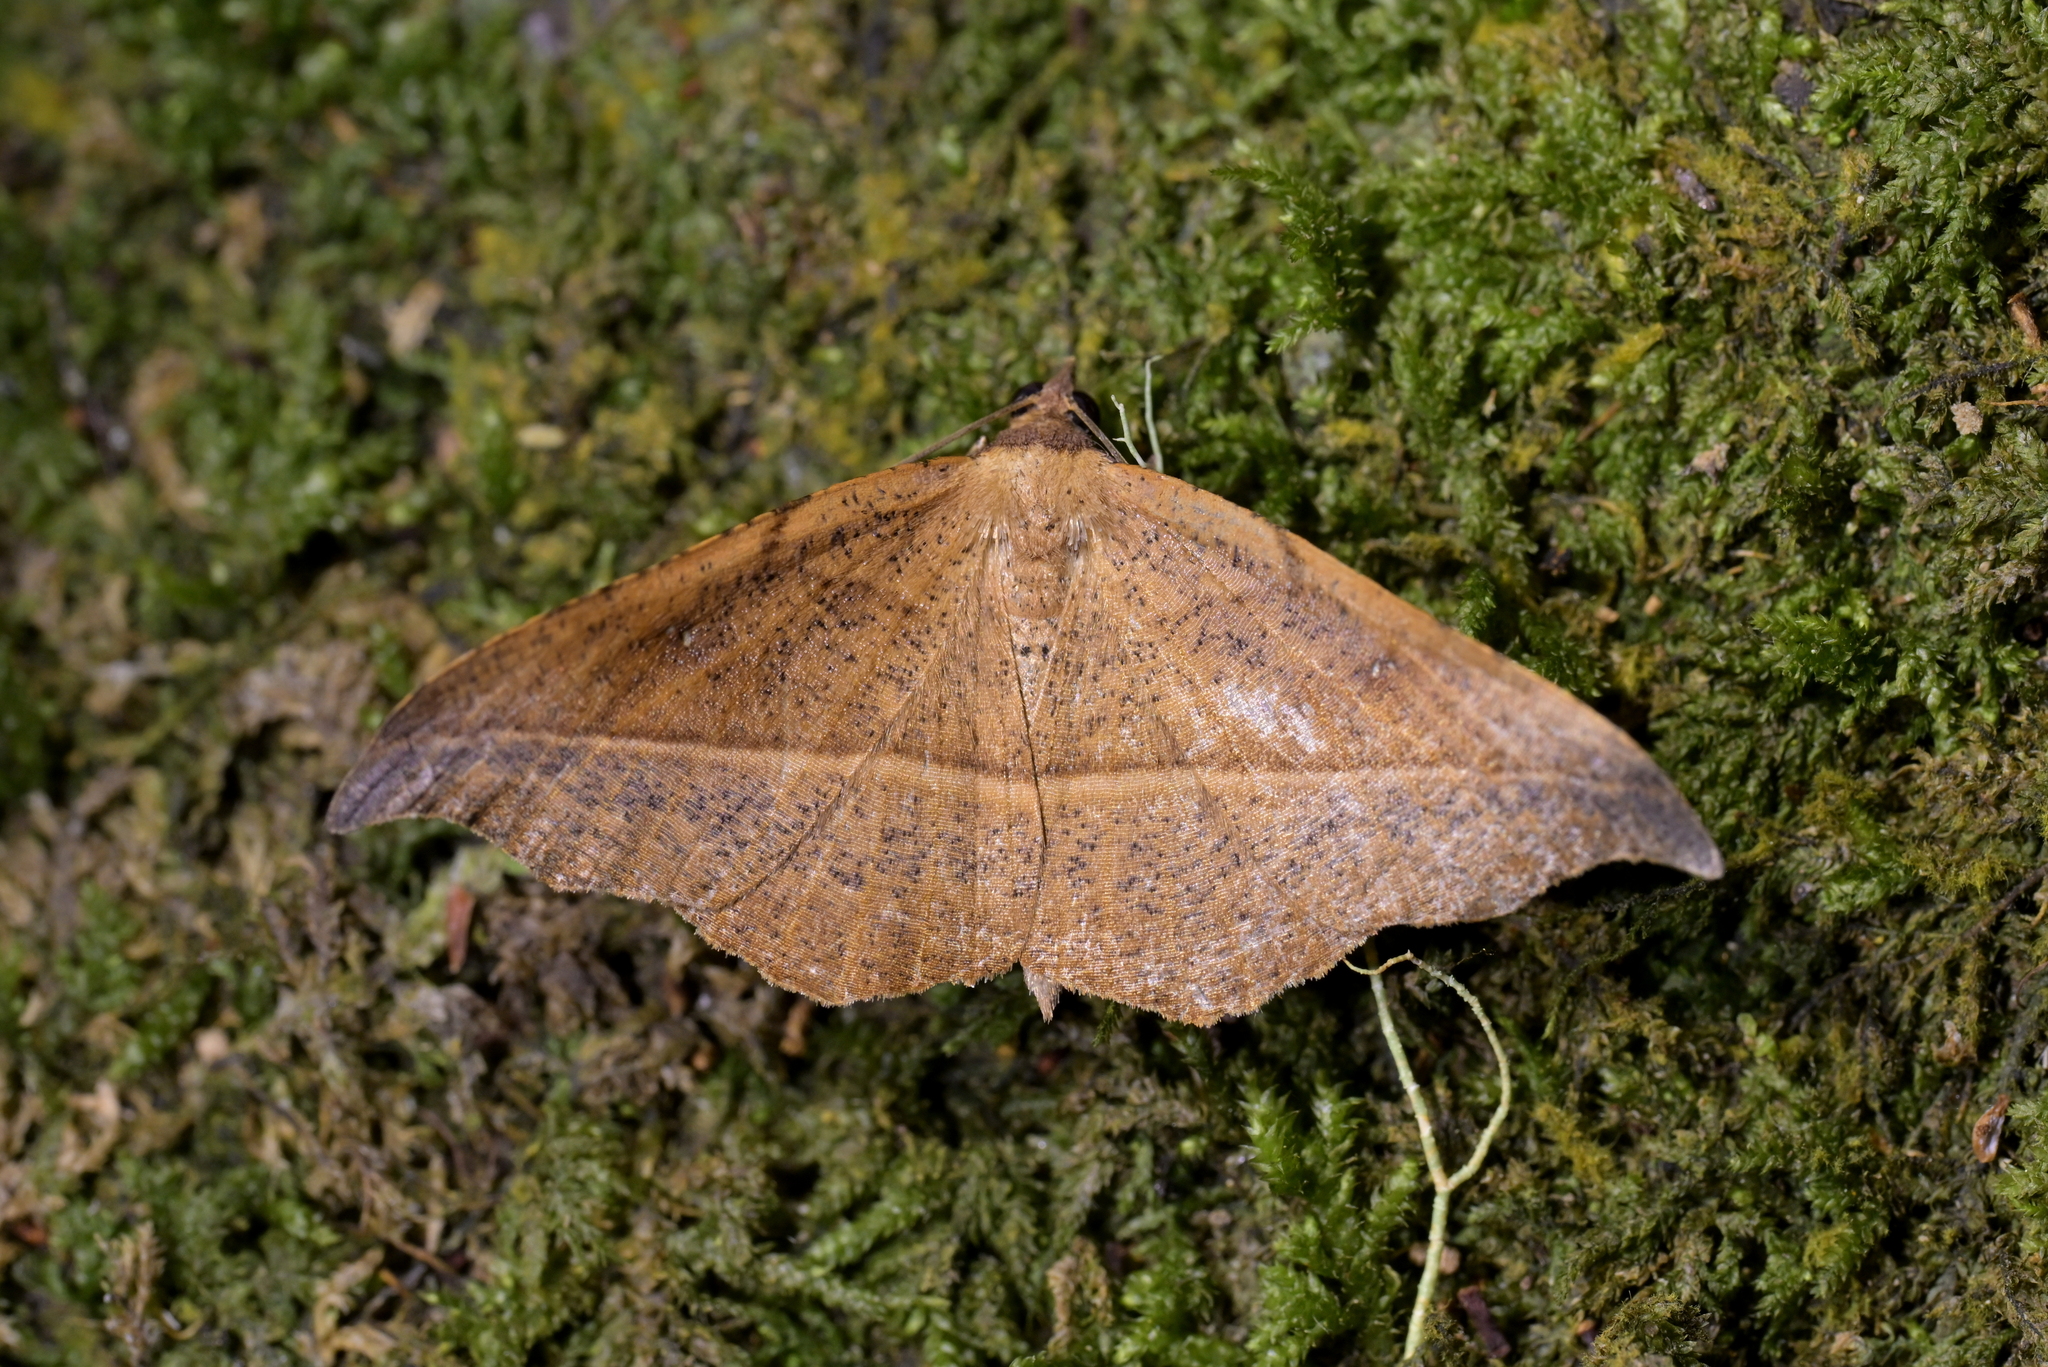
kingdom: Animalia
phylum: Arthropoda
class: Insecta
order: Lepidoptera
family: Geometridae
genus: Sarisa
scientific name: Sarisa muriferata
